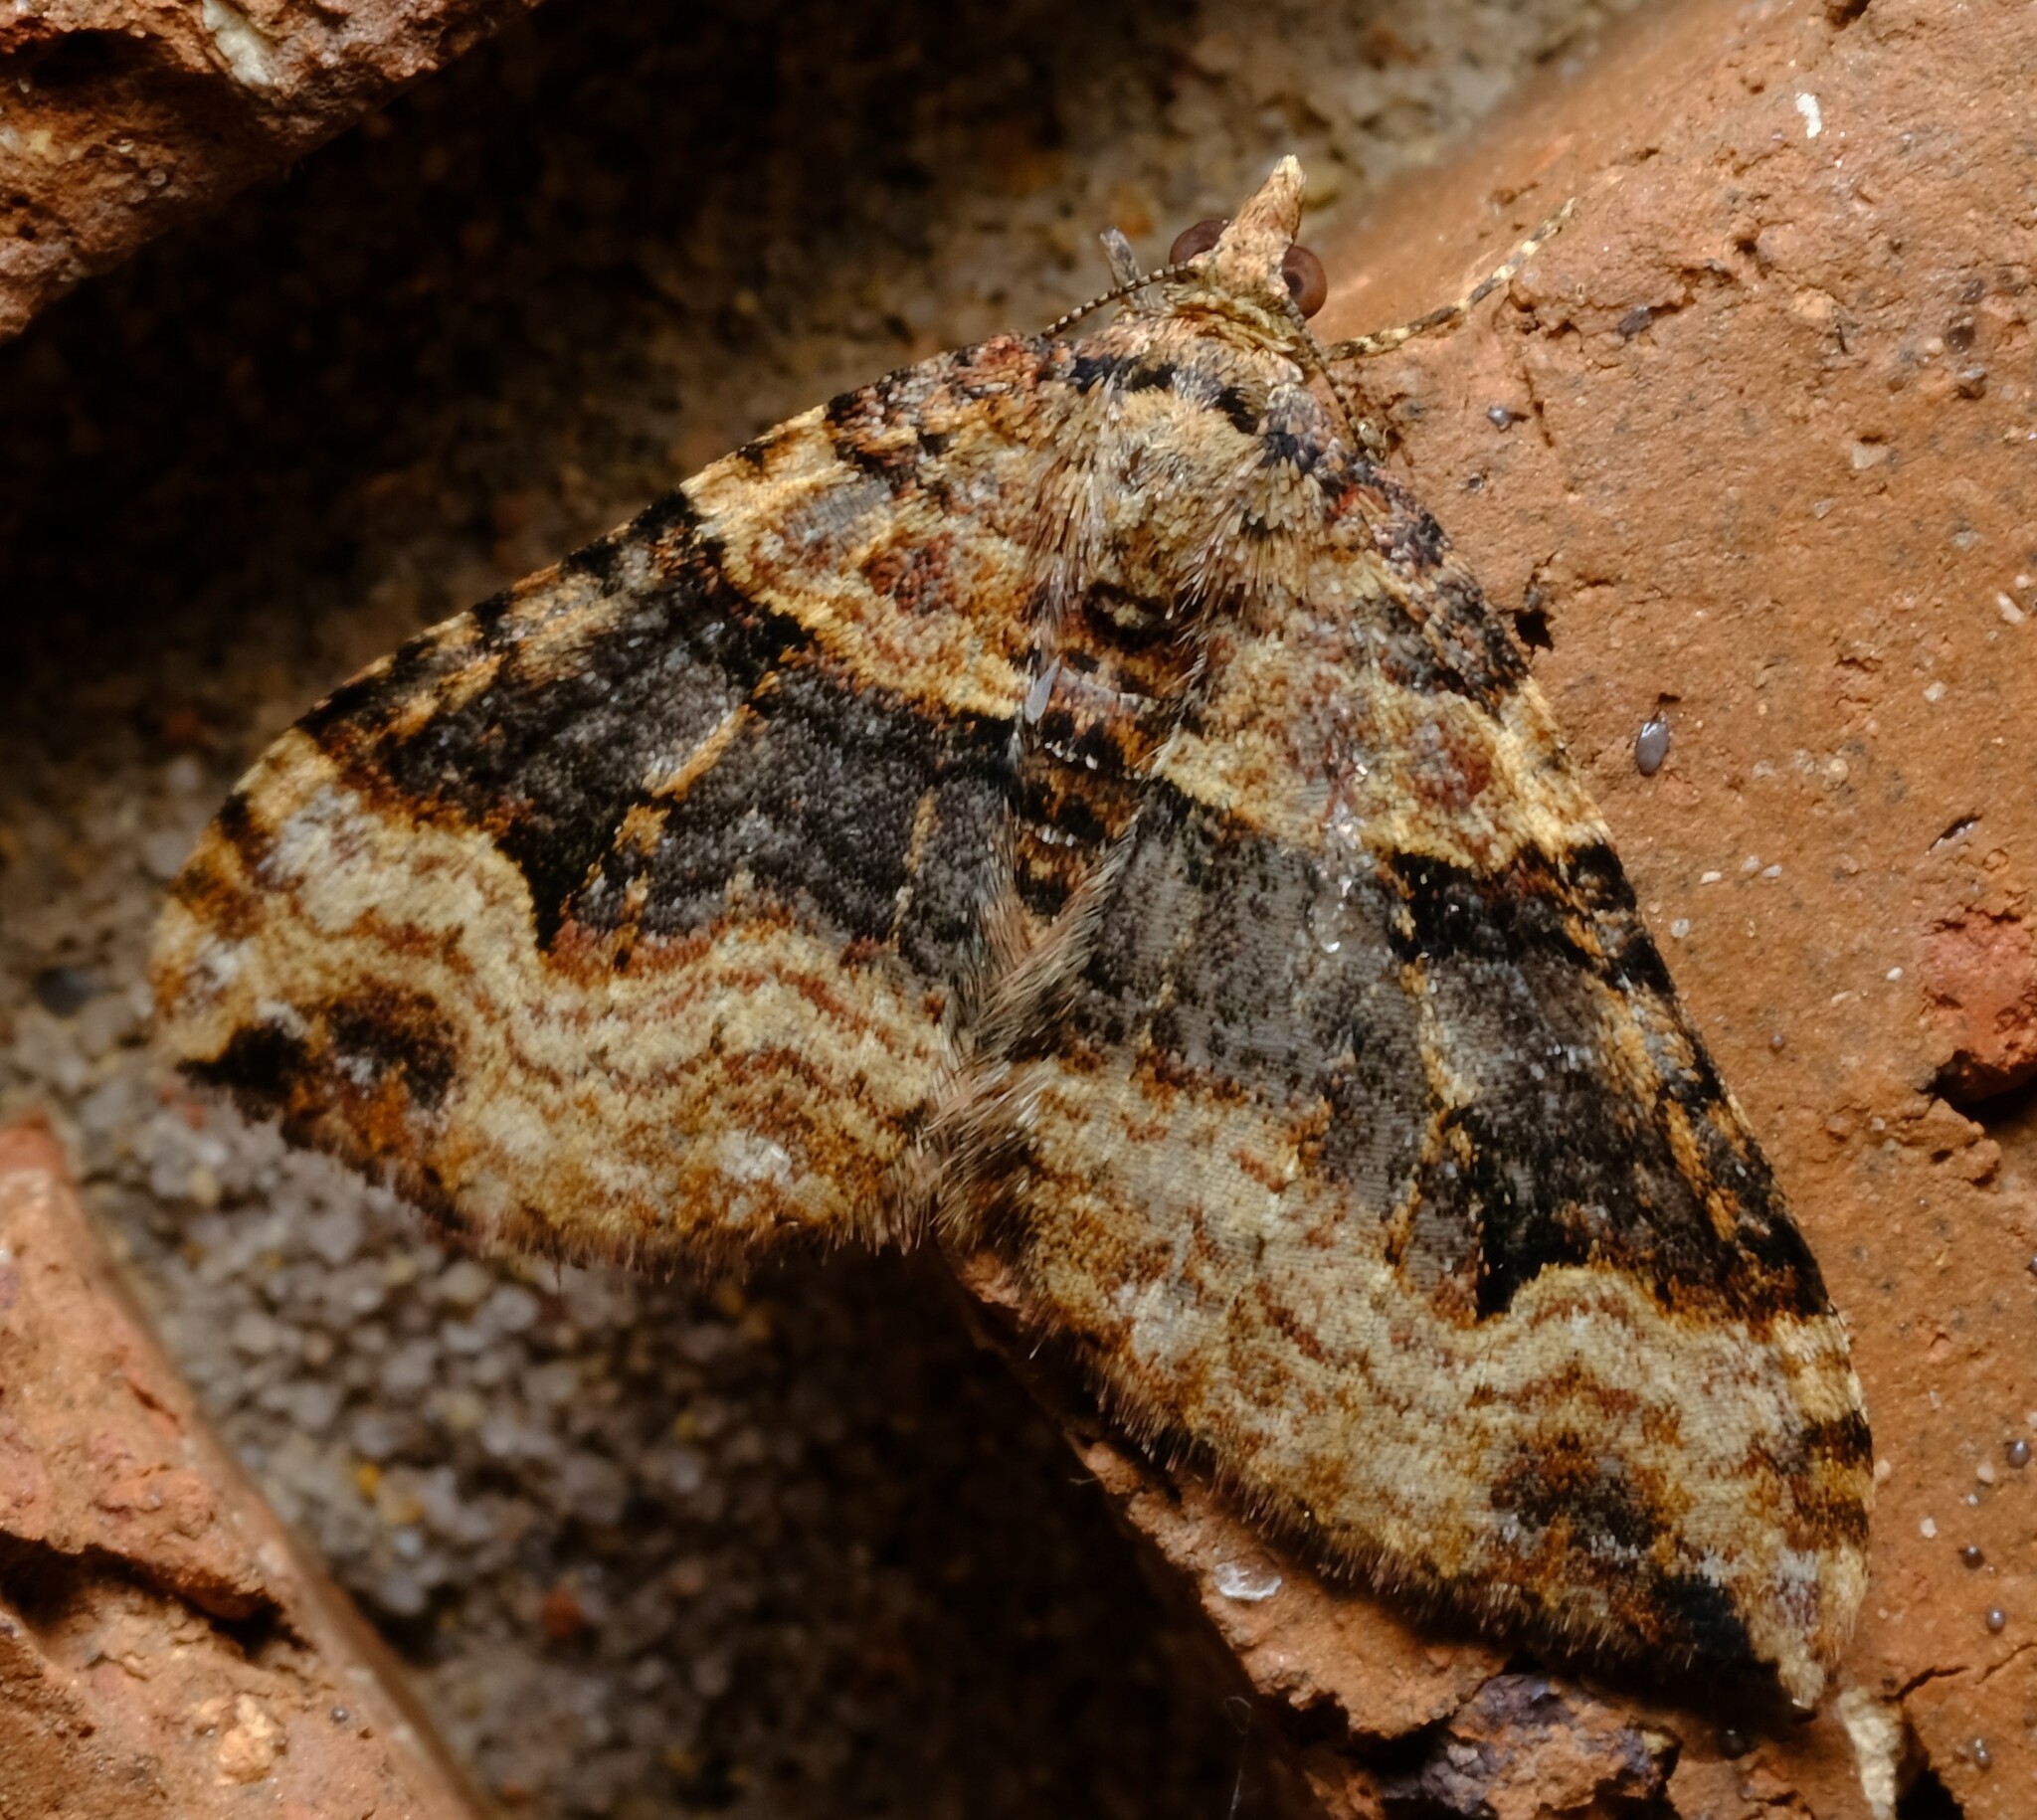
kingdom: Animalia
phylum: Arthropoda
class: Insecta
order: Lepidoptera
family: Geometridae
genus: Epyaxa
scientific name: Epyaxa subidaria
